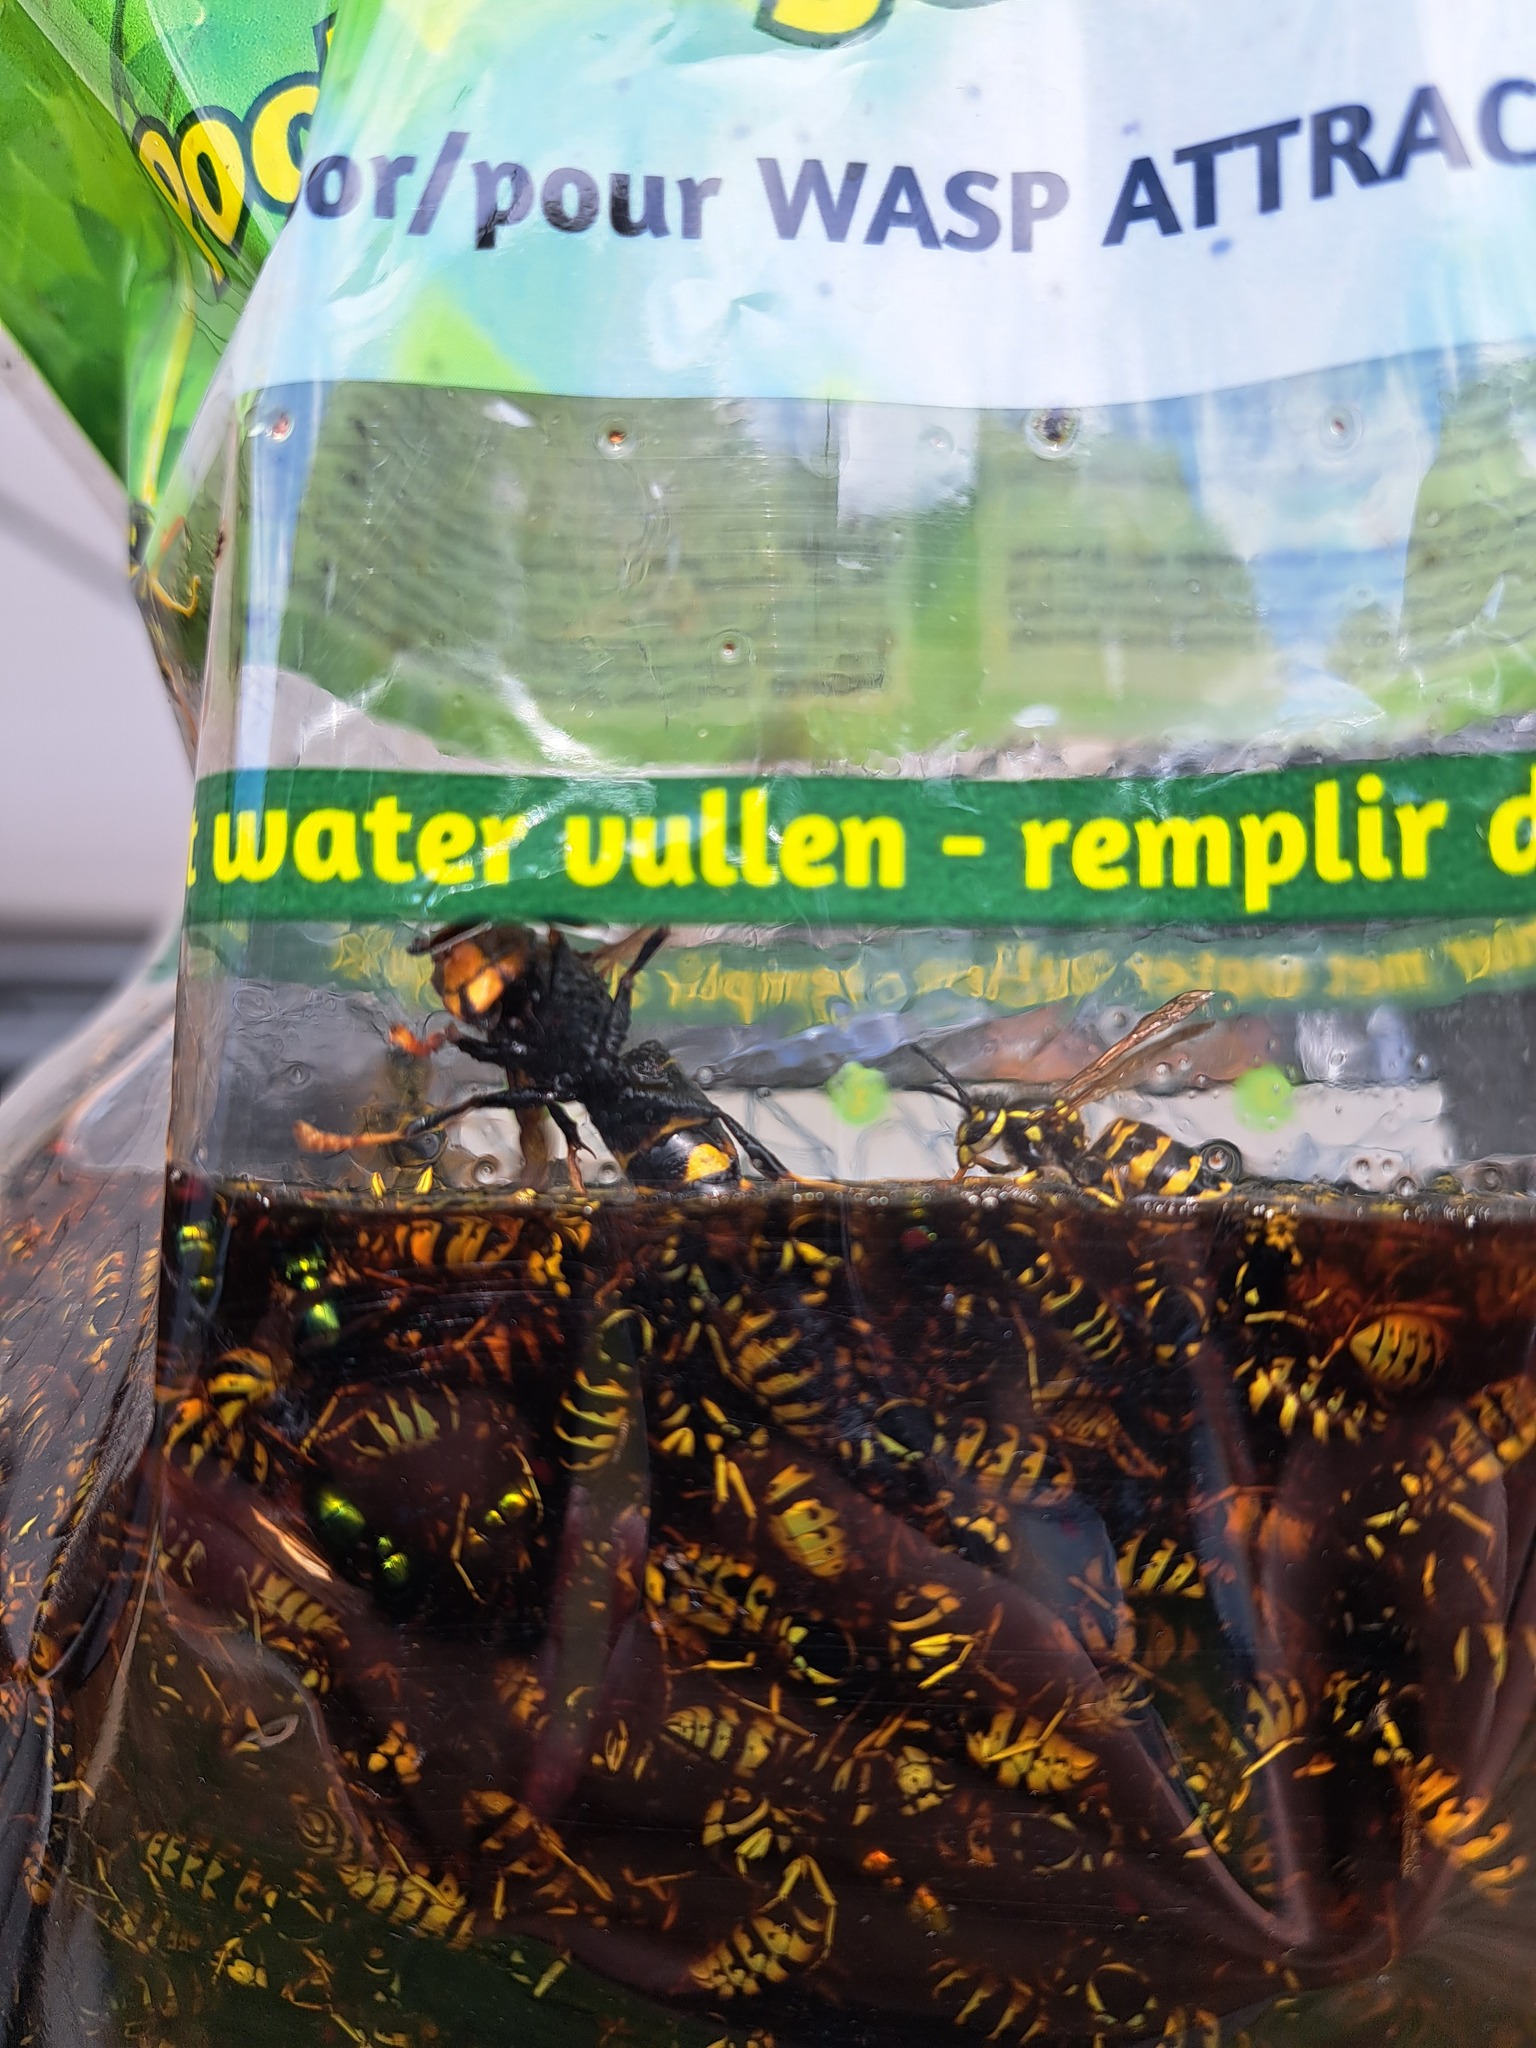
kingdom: Animalia
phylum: Arthropoda
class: Insecta
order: Hymenoptera
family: Vespidae
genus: Vespa
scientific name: Vespa velutina
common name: Asian hornet
